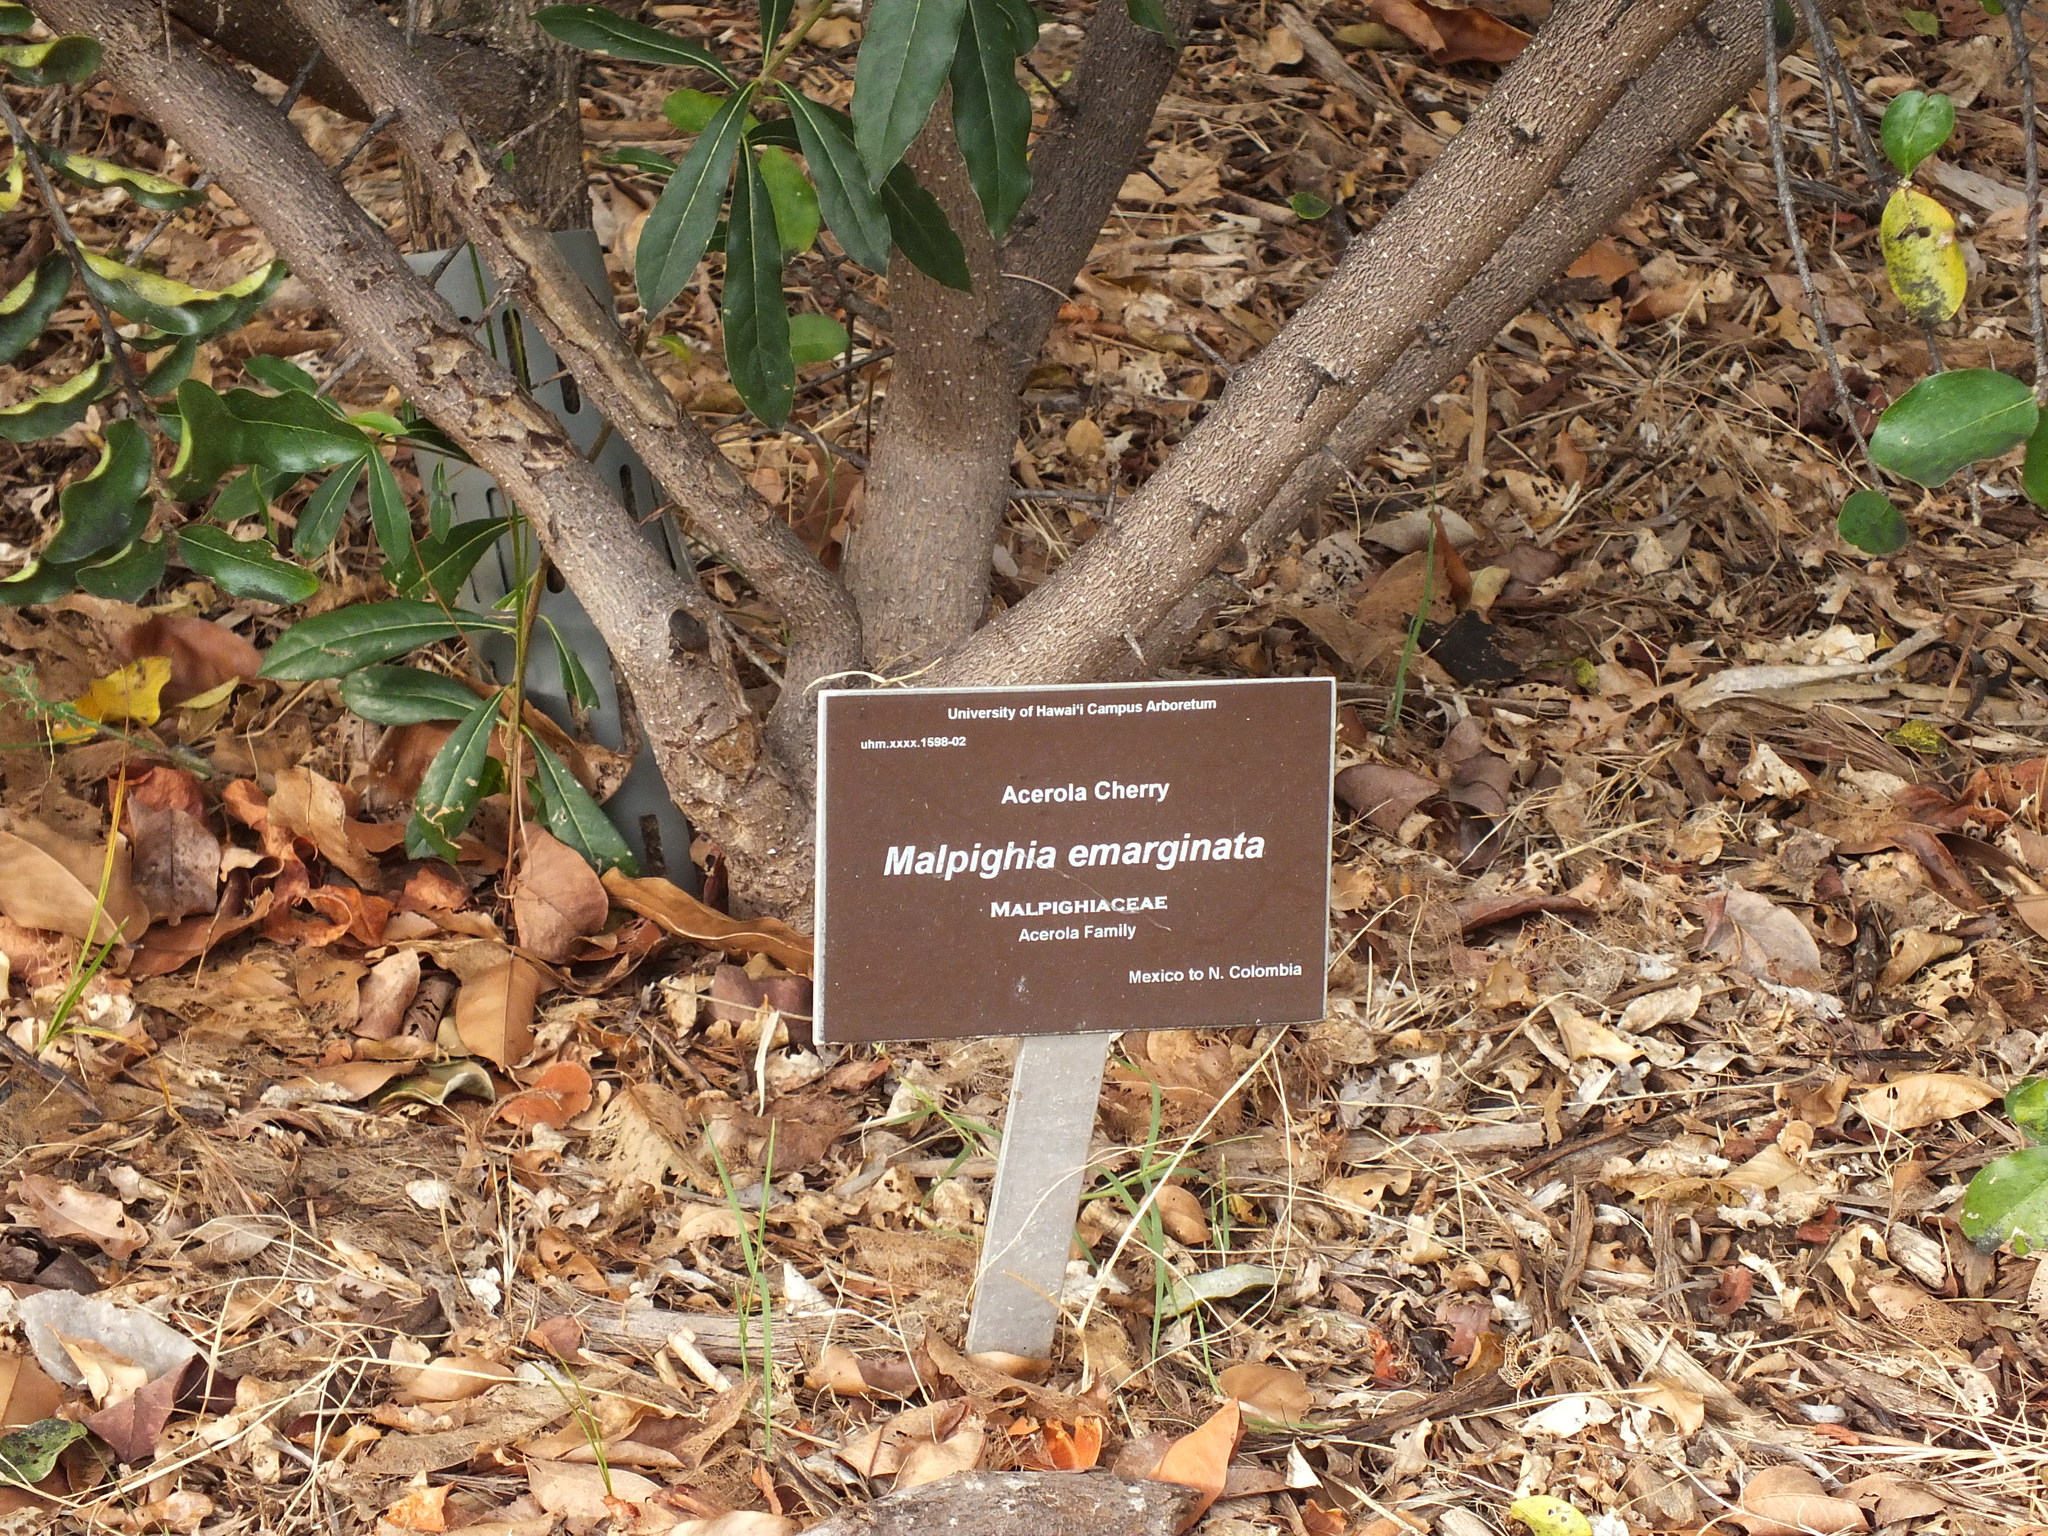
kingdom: Animalia
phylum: Arthropoda
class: Insecta
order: Hymenoptera
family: Formicidae
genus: Pheidole
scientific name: Pheidole megacephala
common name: Bigheaded ant
